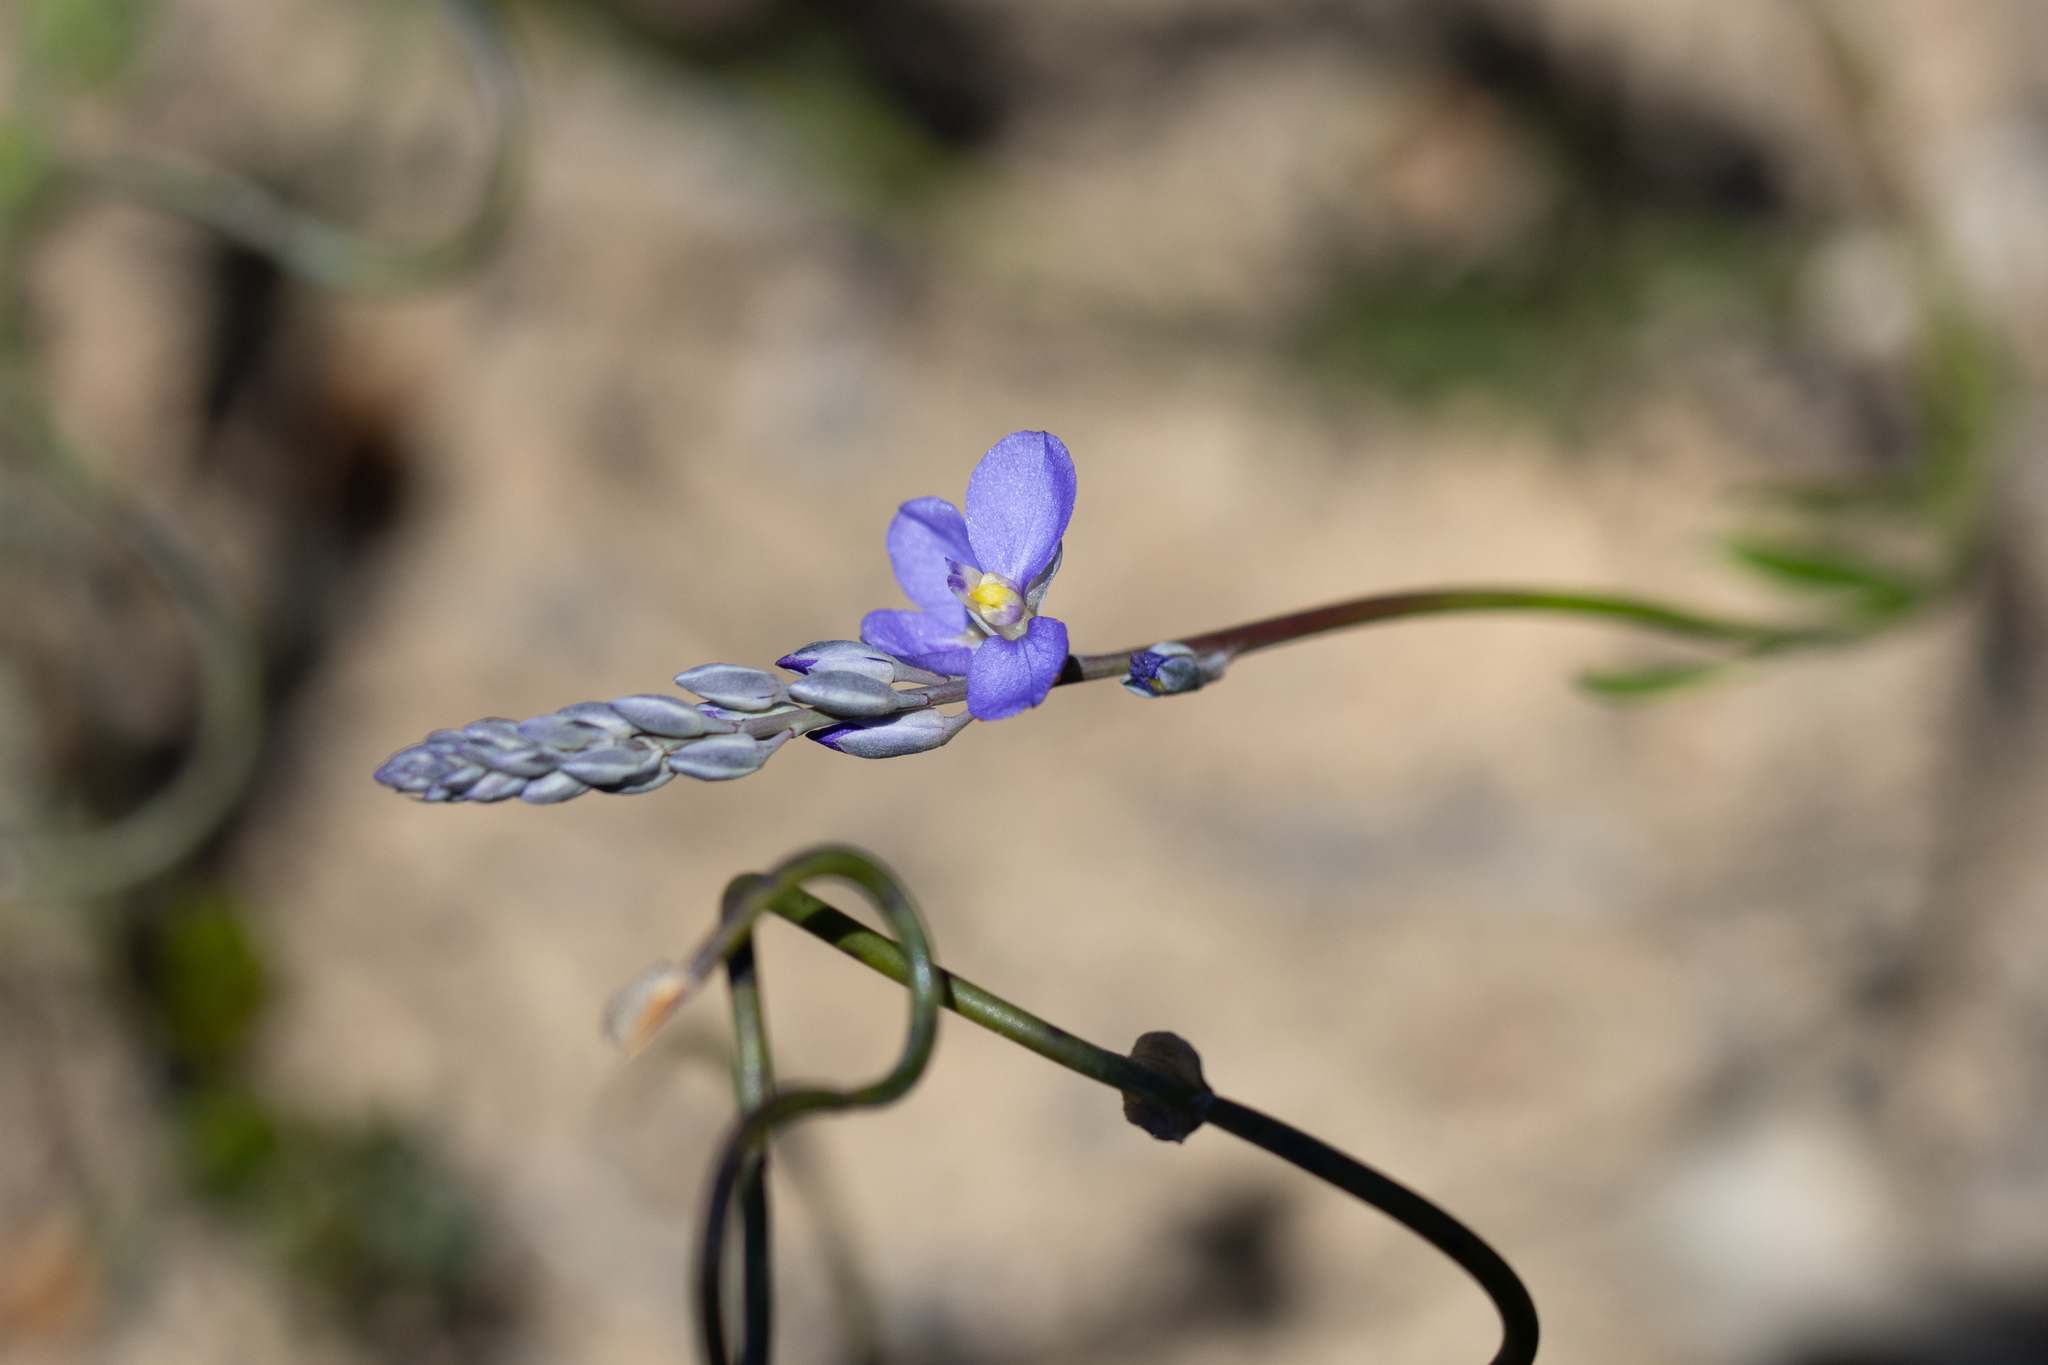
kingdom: Plantae
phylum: Tracheophyta
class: Magnoliopsida
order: Fabales
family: Polygalaceae
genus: Comesperma
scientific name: Comesperma calymega
